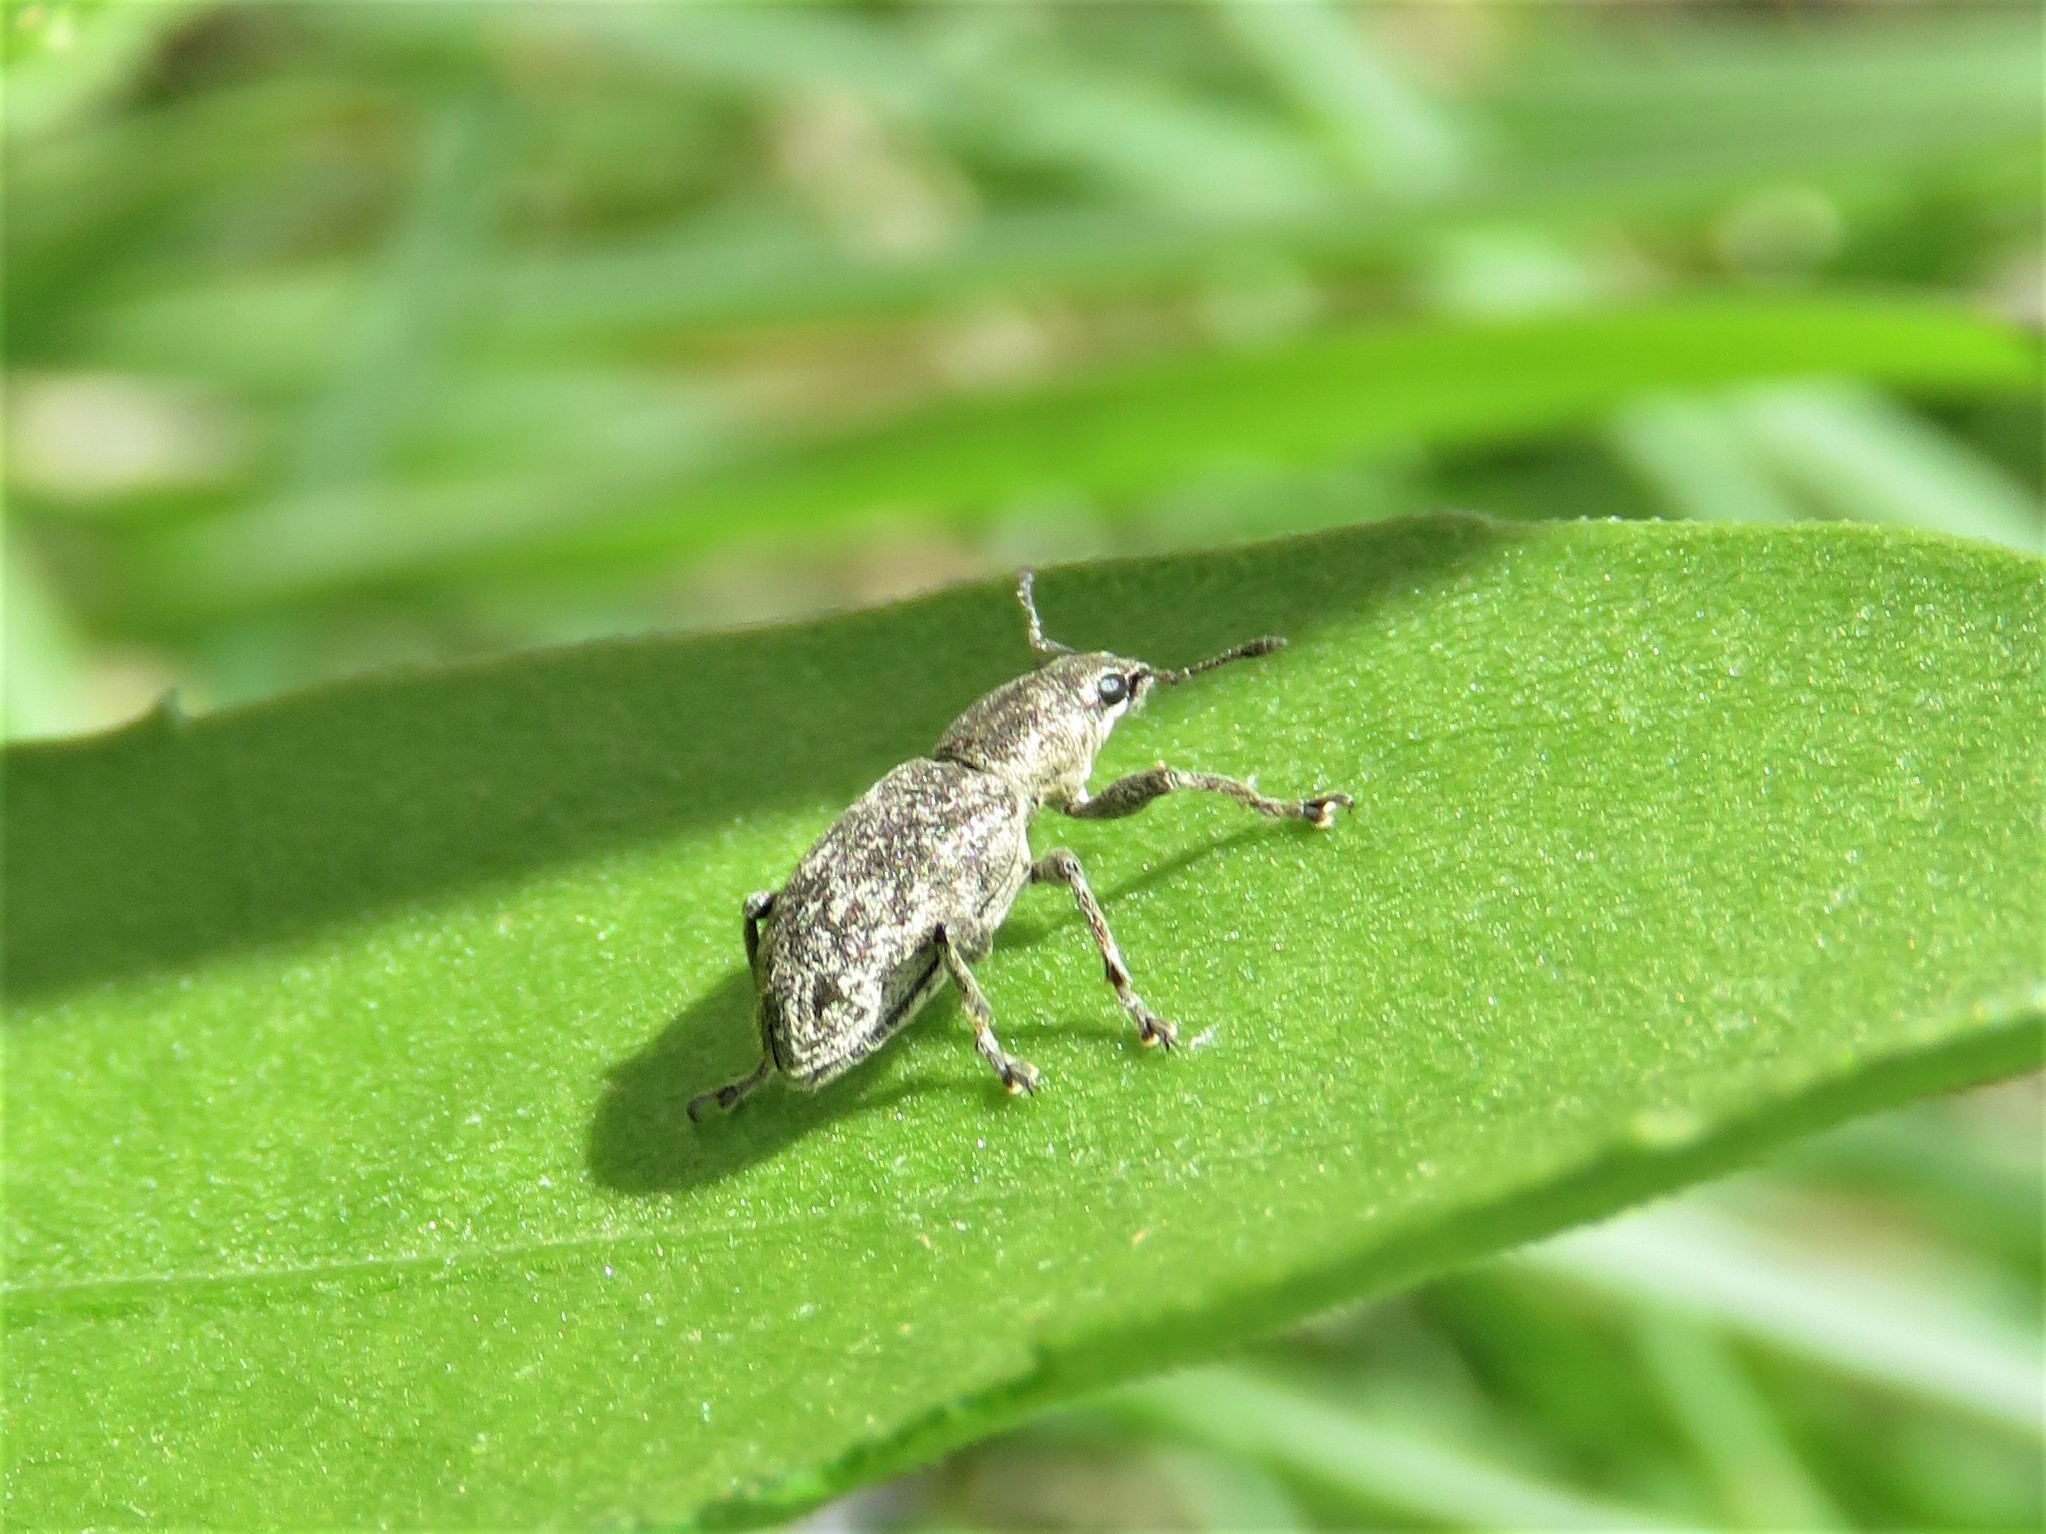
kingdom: Animalia
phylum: Arthropoda
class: Insecta
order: Coleoptera
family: Curculionidae
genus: Tanymecus
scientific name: Tanymecus confusus
